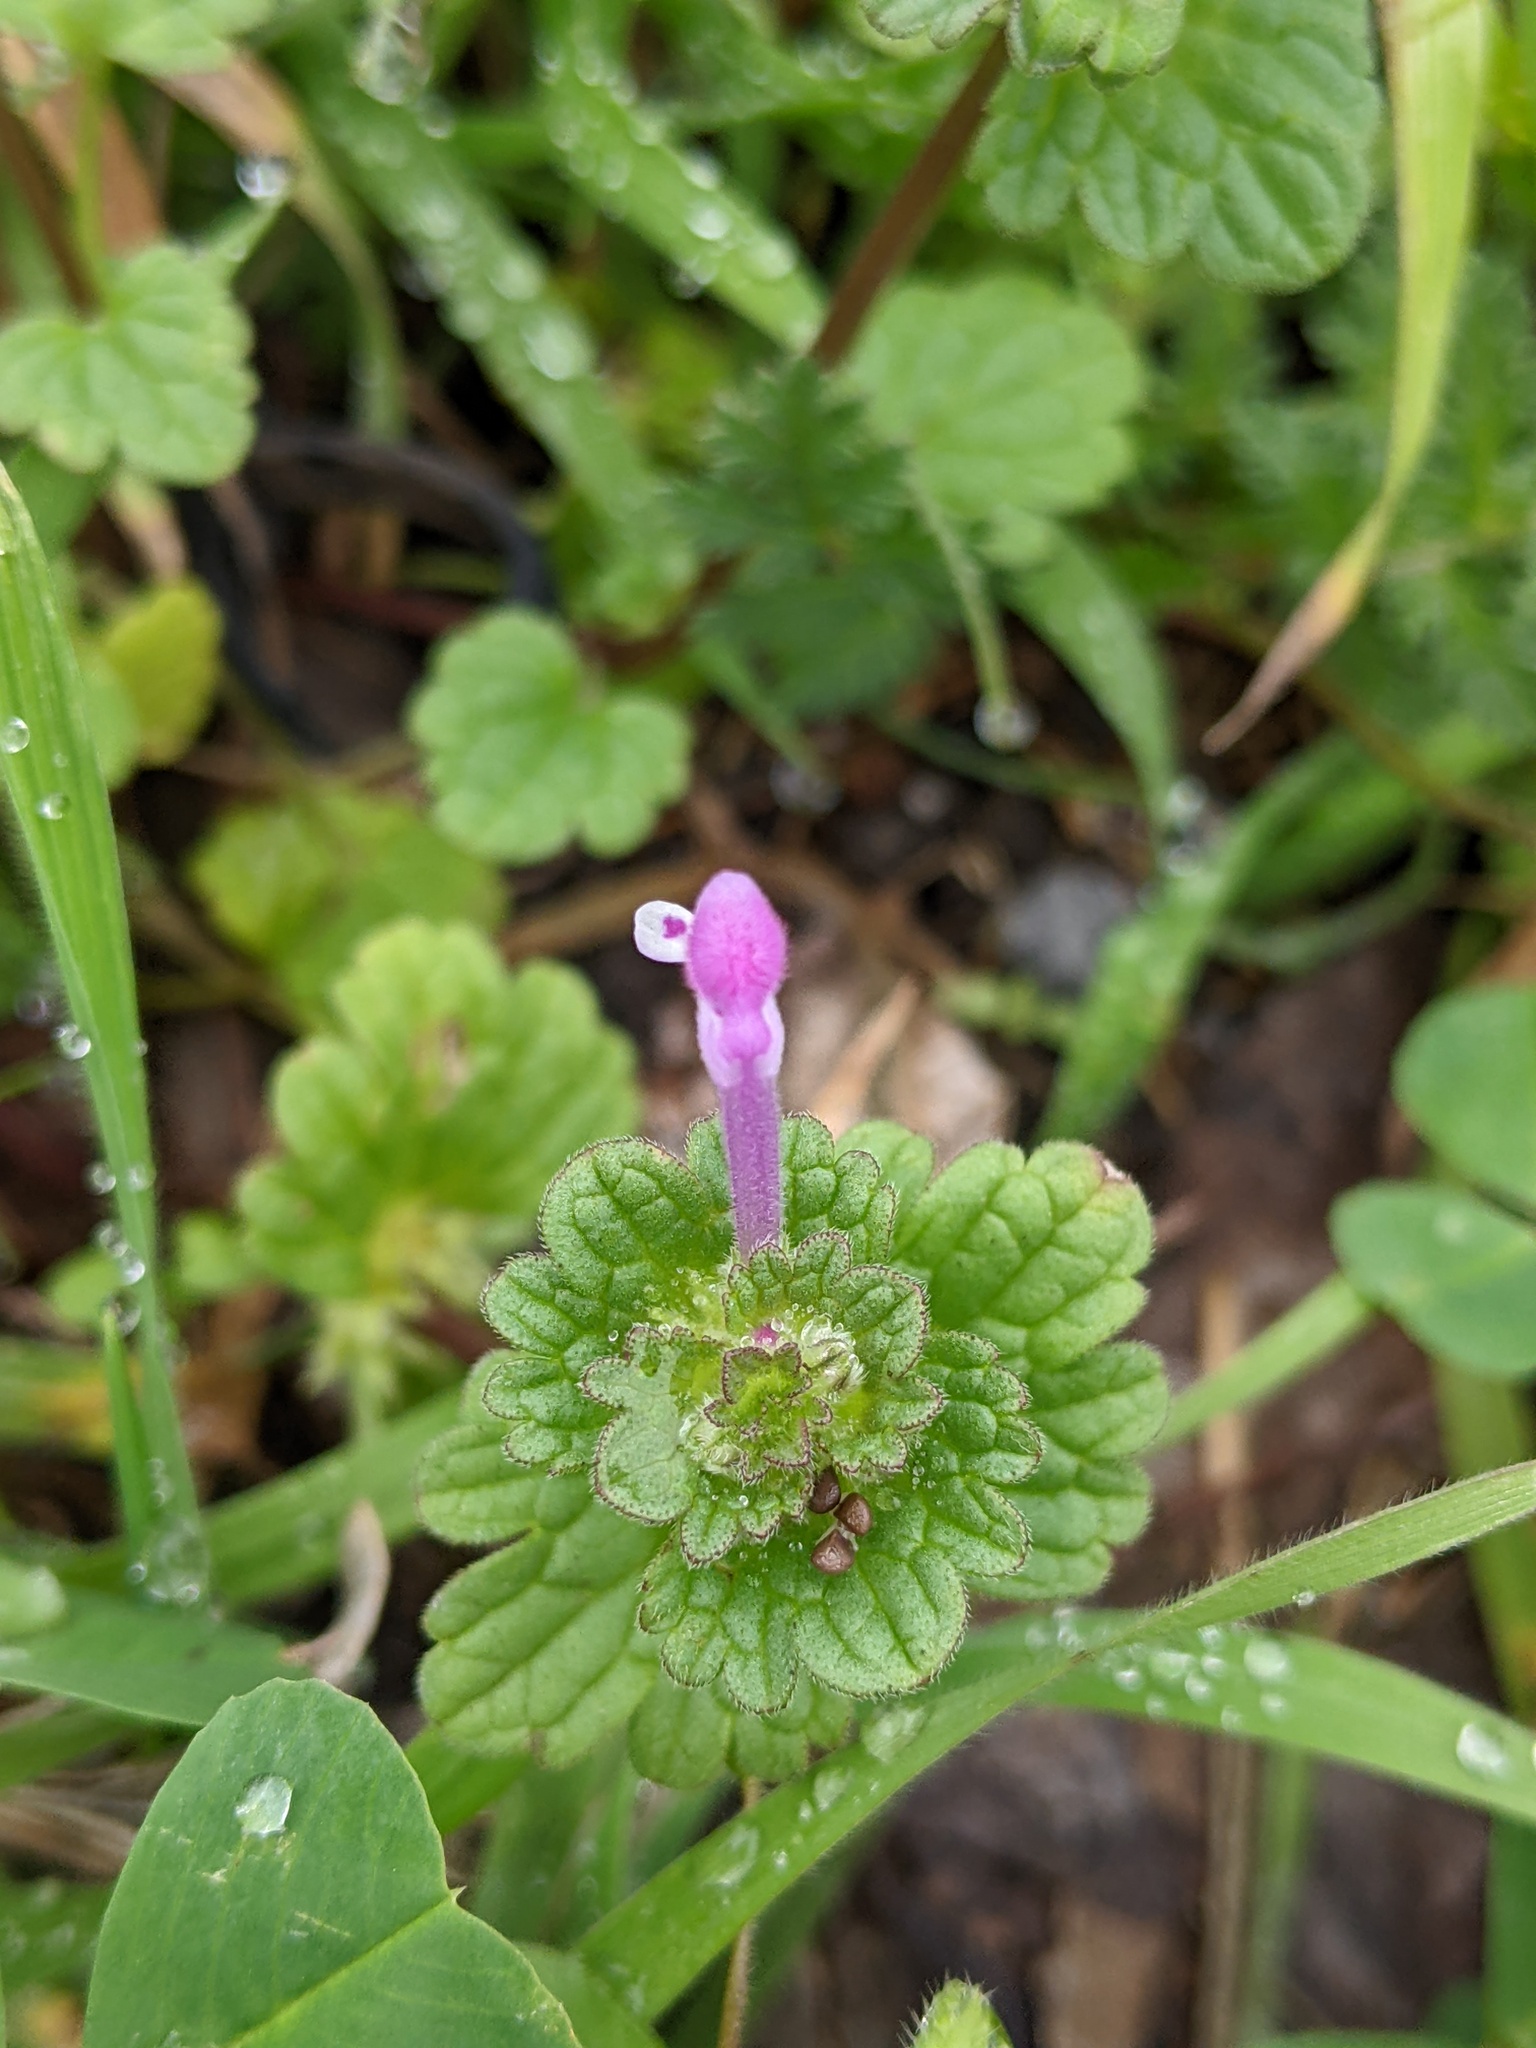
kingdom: Plantae
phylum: Tracheophyta
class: Magnoliopsida
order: Lamiales
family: Lamiaceae
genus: Lamium
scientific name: Lamium amplexicaule
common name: Henbit dead-nettle
